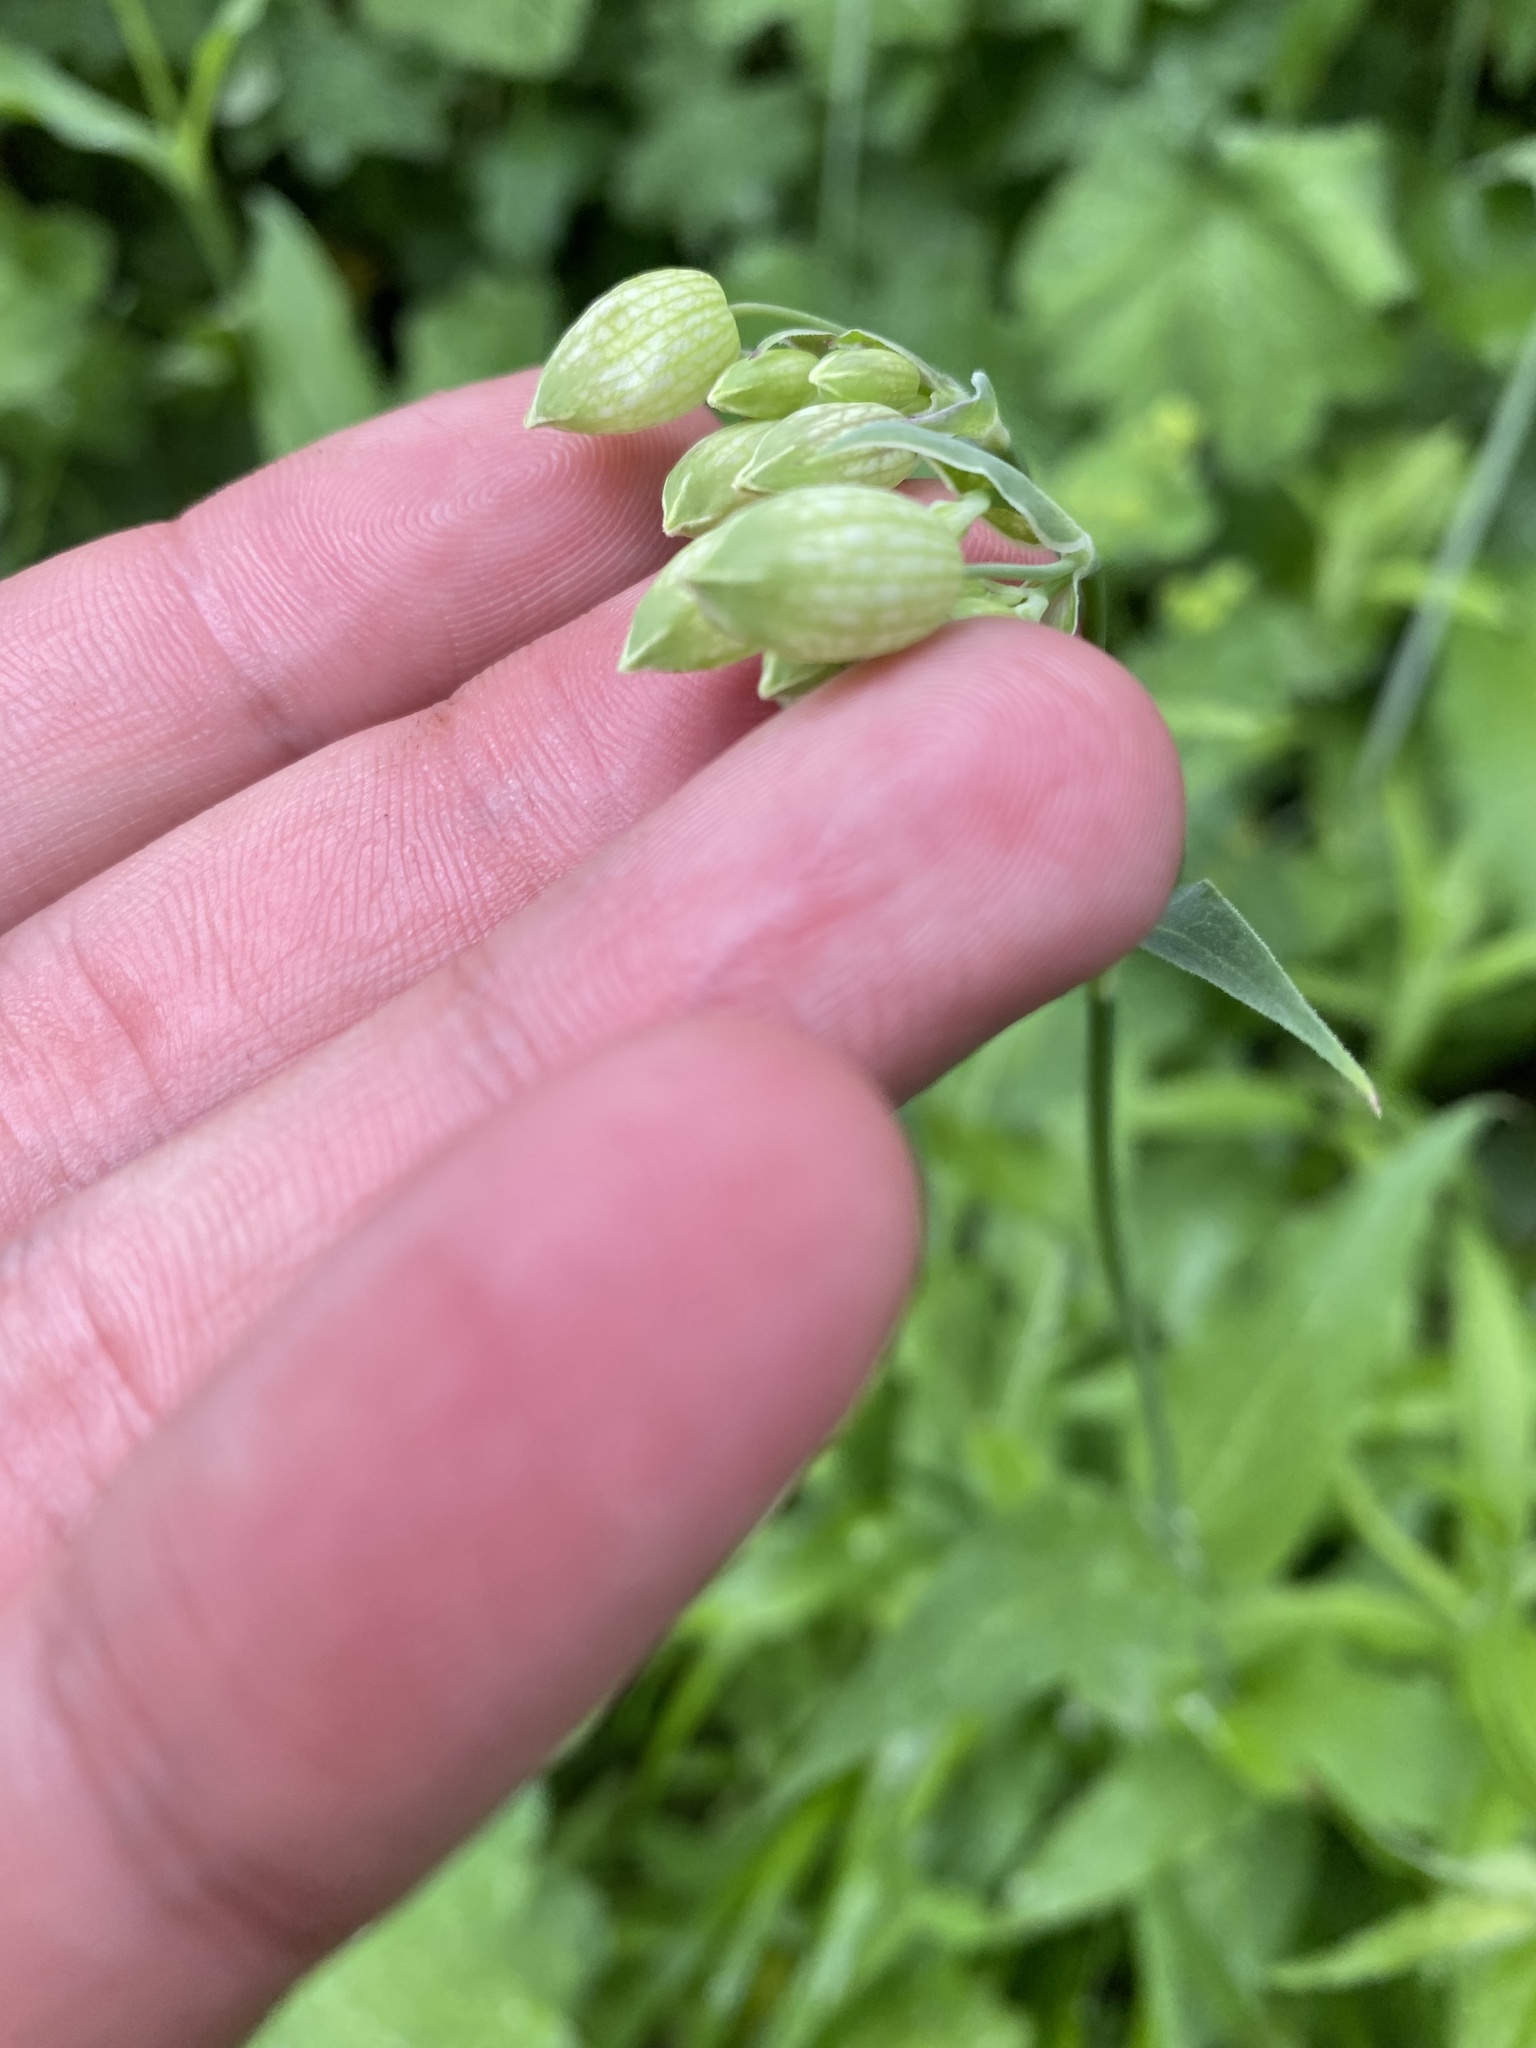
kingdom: Plantae
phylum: Tracheophyta
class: Magnoliopsida
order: Caryophyllales
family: Caryophyllaceae
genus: Silene
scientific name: Silene vulgaris
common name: Bladder campion
